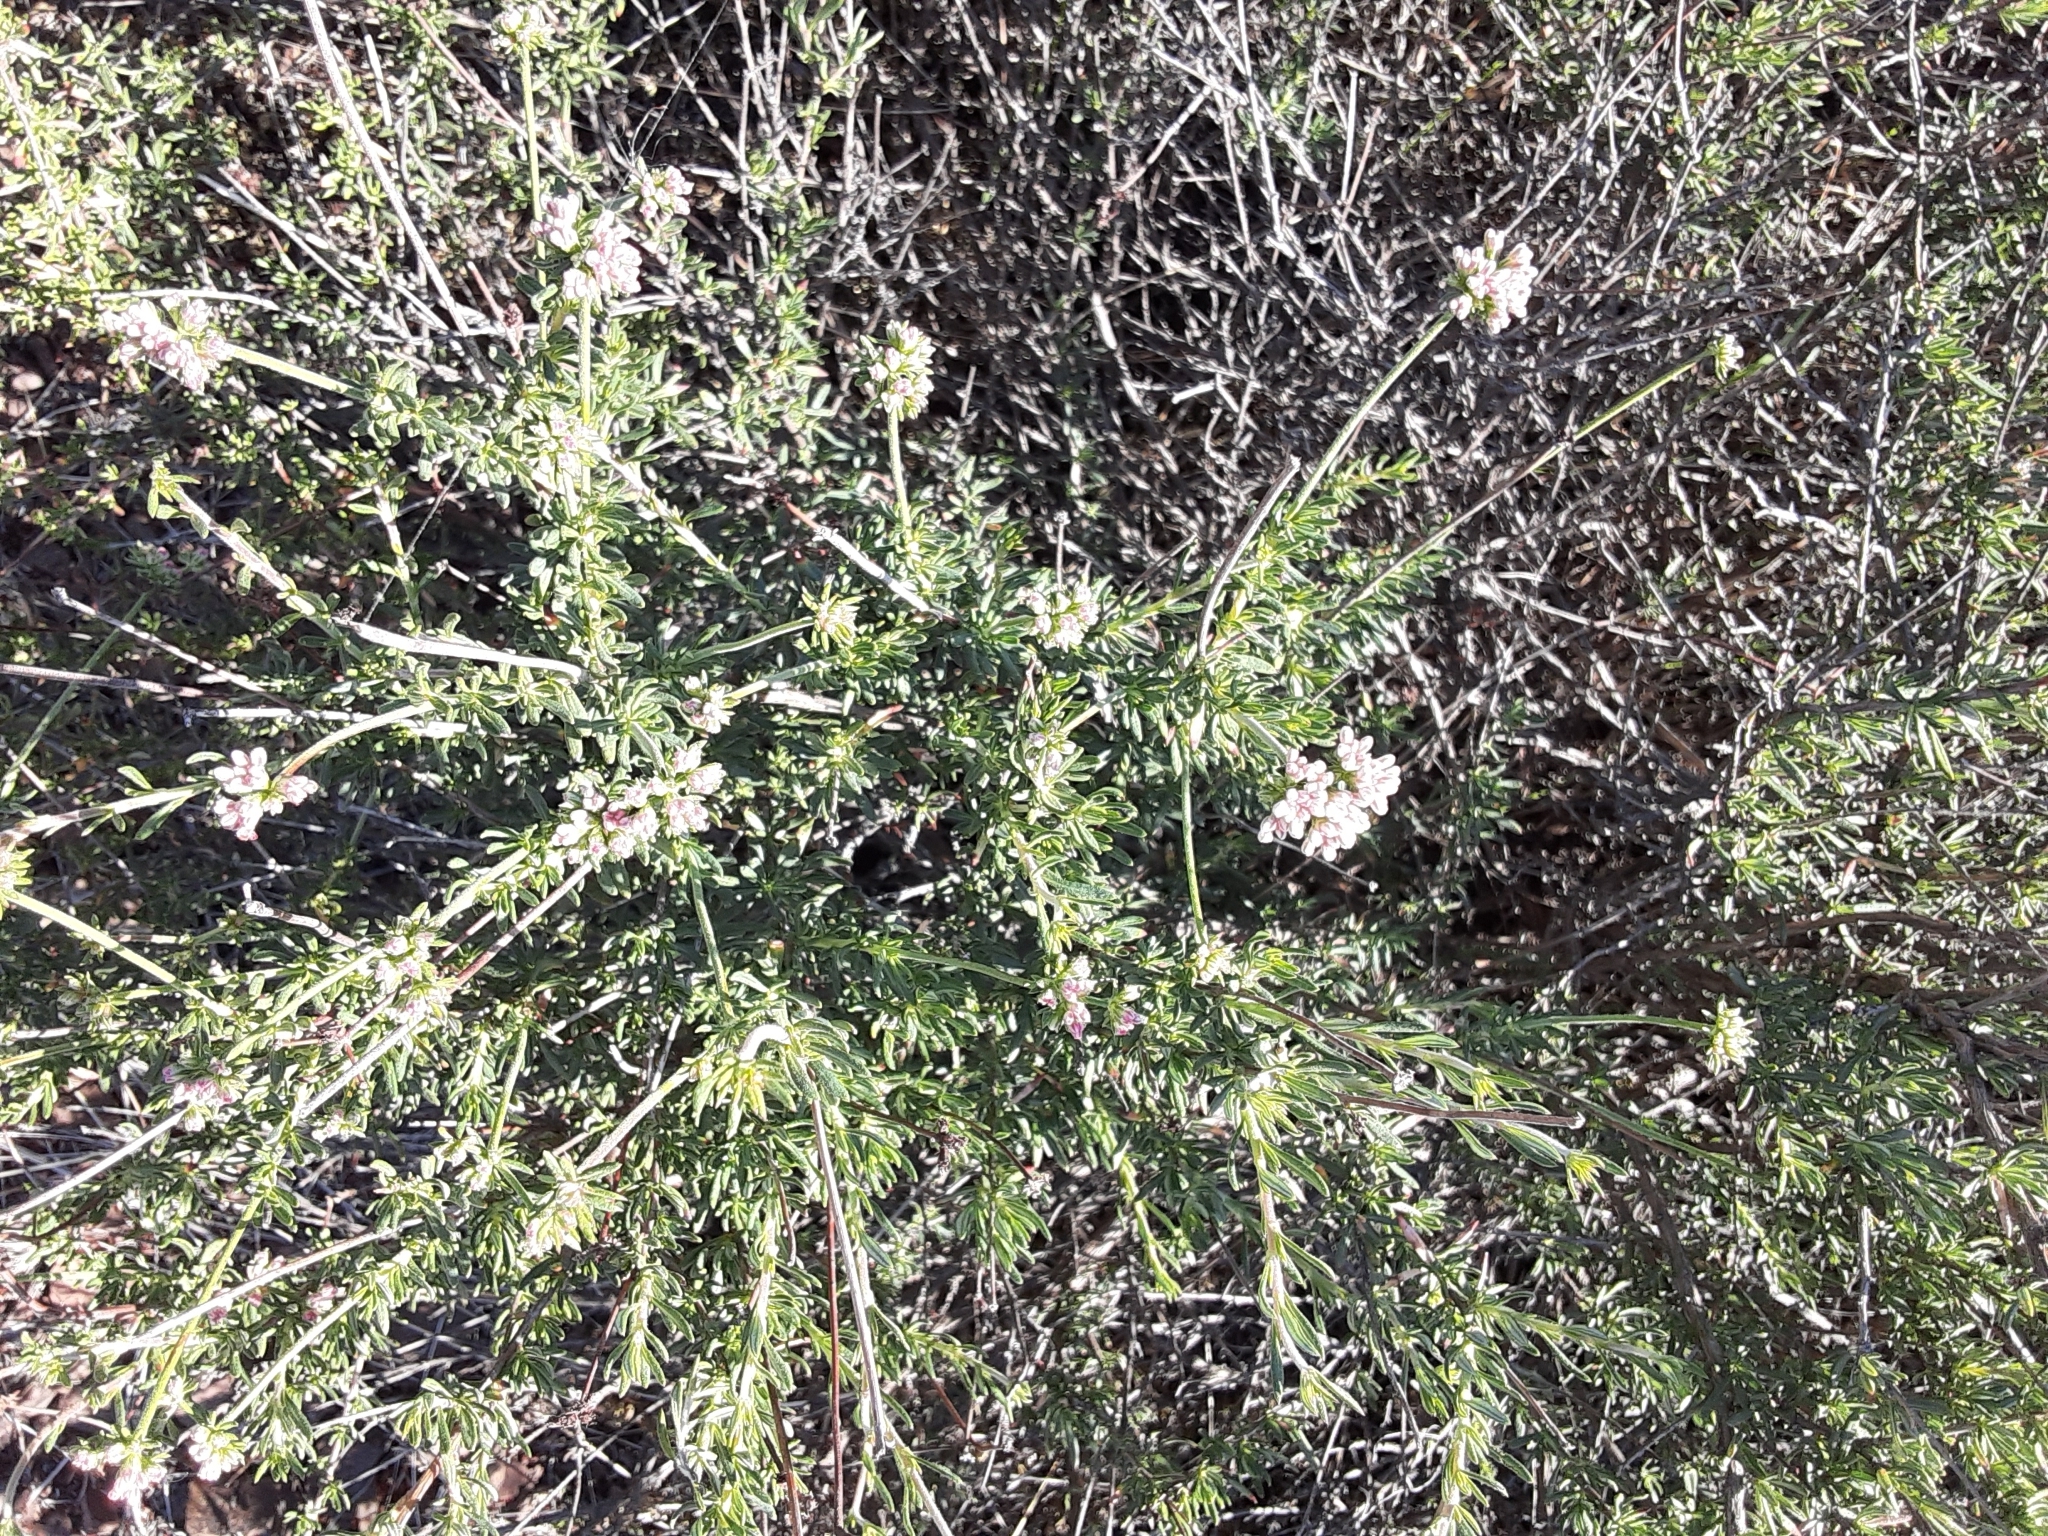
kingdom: Plantae
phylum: Tracheophyta
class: Magnoliopsida
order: Caryophyllales
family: Polygonaceae
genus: Eriogonum
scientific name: Eriogonum fasciculatum
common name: California wild buckwheat
